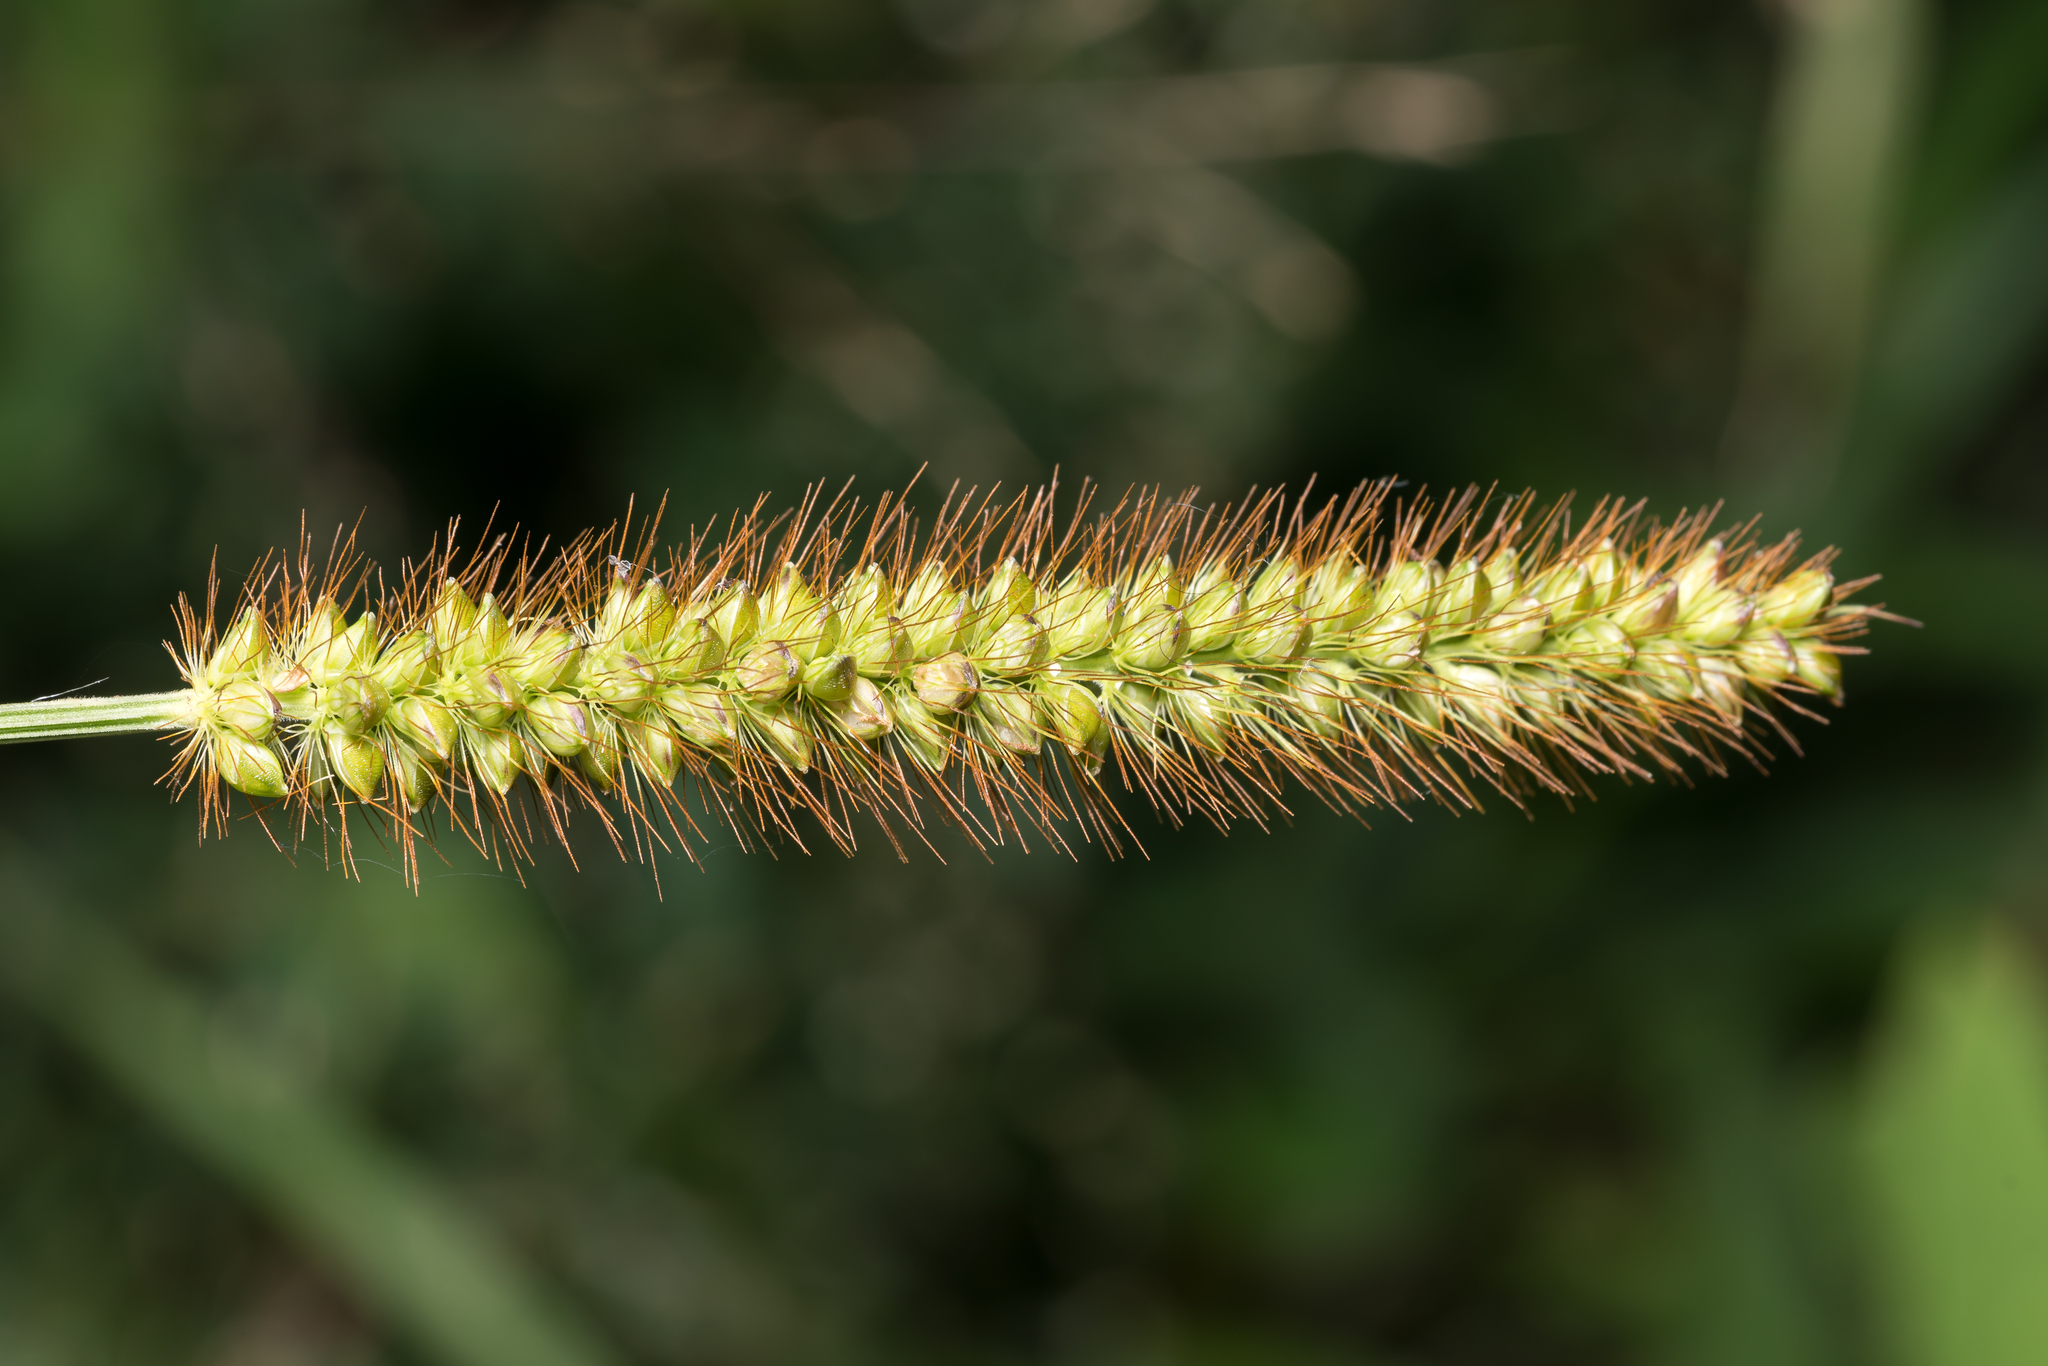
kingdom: Plantae
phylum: Tracheophyta
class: Liliopsida
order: Poales
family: Poaceae
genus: Setaria
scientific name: Setaria pumila
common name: Yellow bristle-grass
